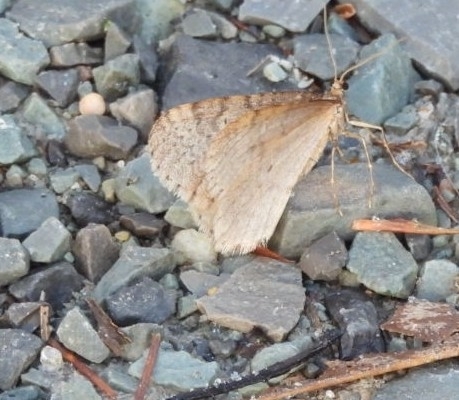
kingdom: Animalia
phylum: Arthropoda
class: Insecta
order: Lepidoptera
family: Geometridae
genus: Operophtera
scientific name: Operophtera bruceata
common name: Bruce spanworm
